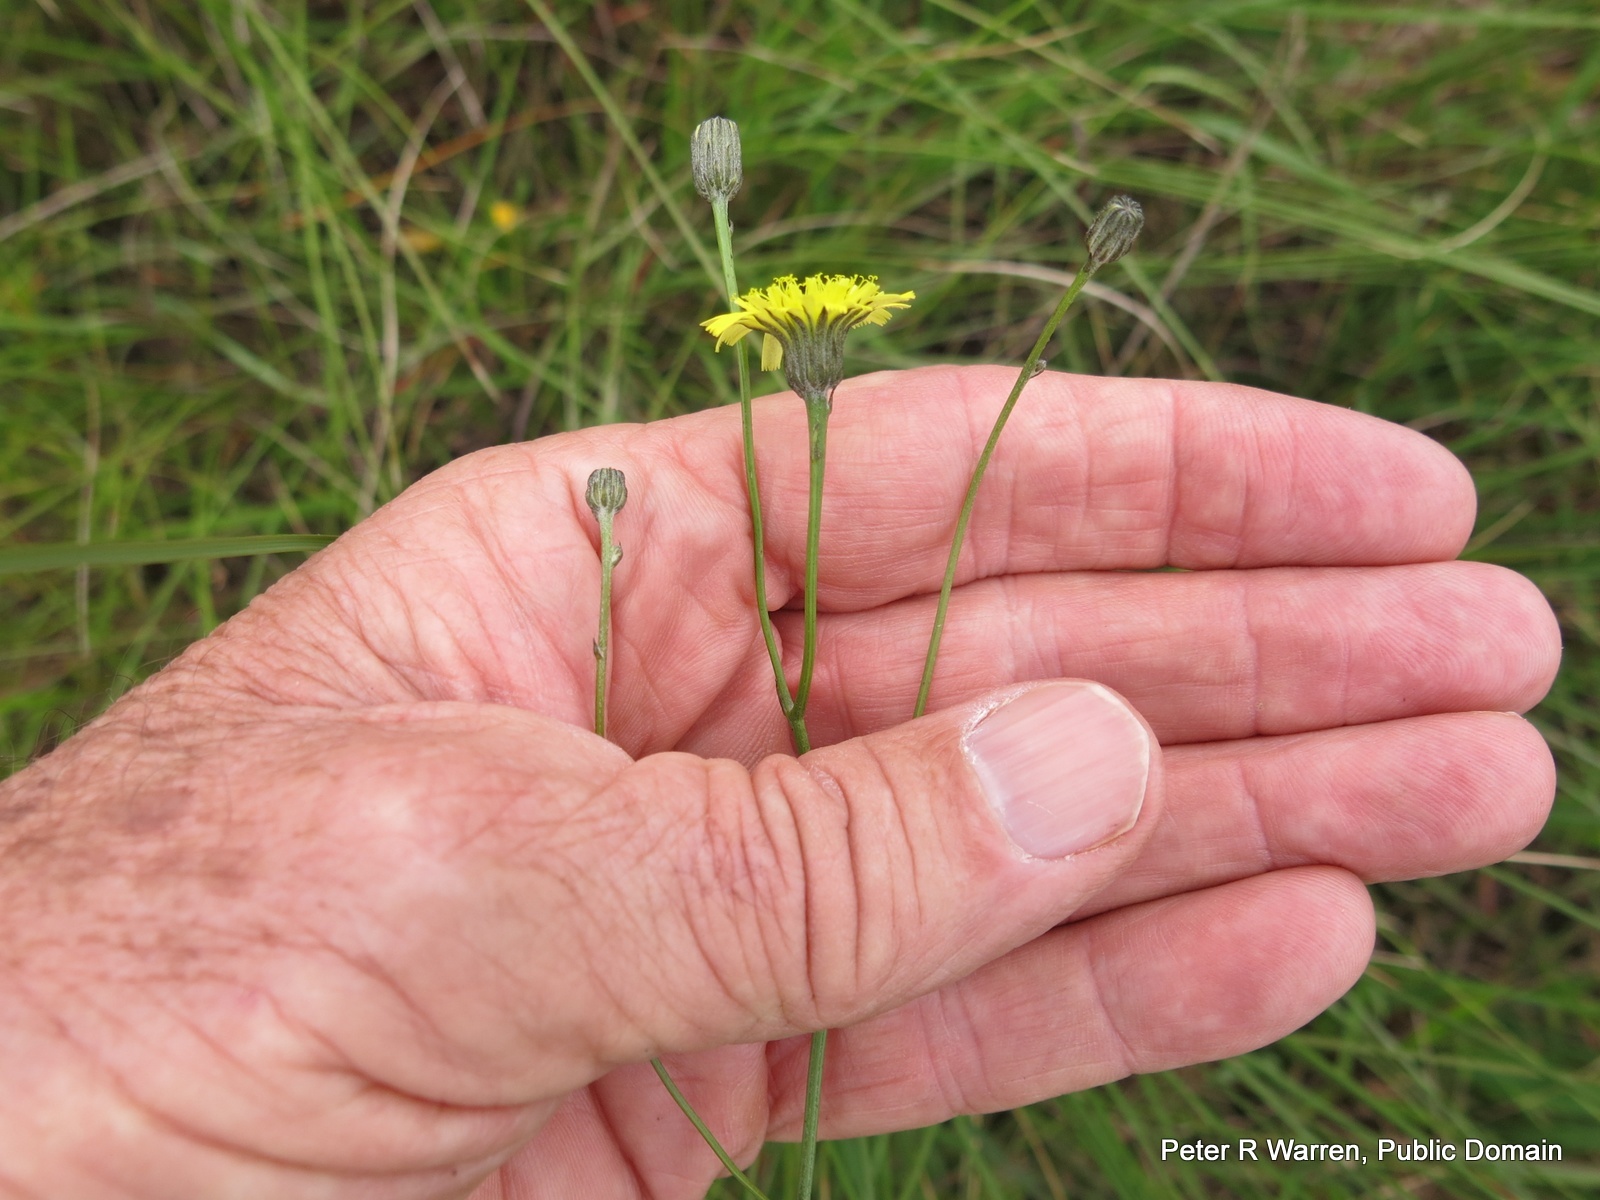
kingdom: Plantae
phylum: Tracheophyta
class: Magnoliopsida
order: Asterales
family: Asteraceae
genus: Hypochaeris
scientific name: Hypochaeris radicata
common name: Flatweed
